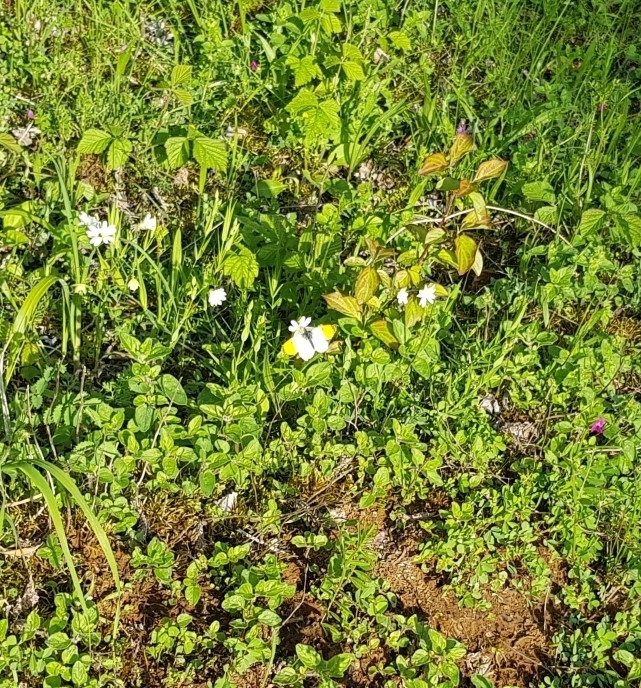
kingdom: Animalia
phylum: Arthropoda
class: Insecta
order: Lepidoptera
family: Pieridae
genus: Anthocharis
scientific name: Anthocharis cardamines
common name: Orange-tip
